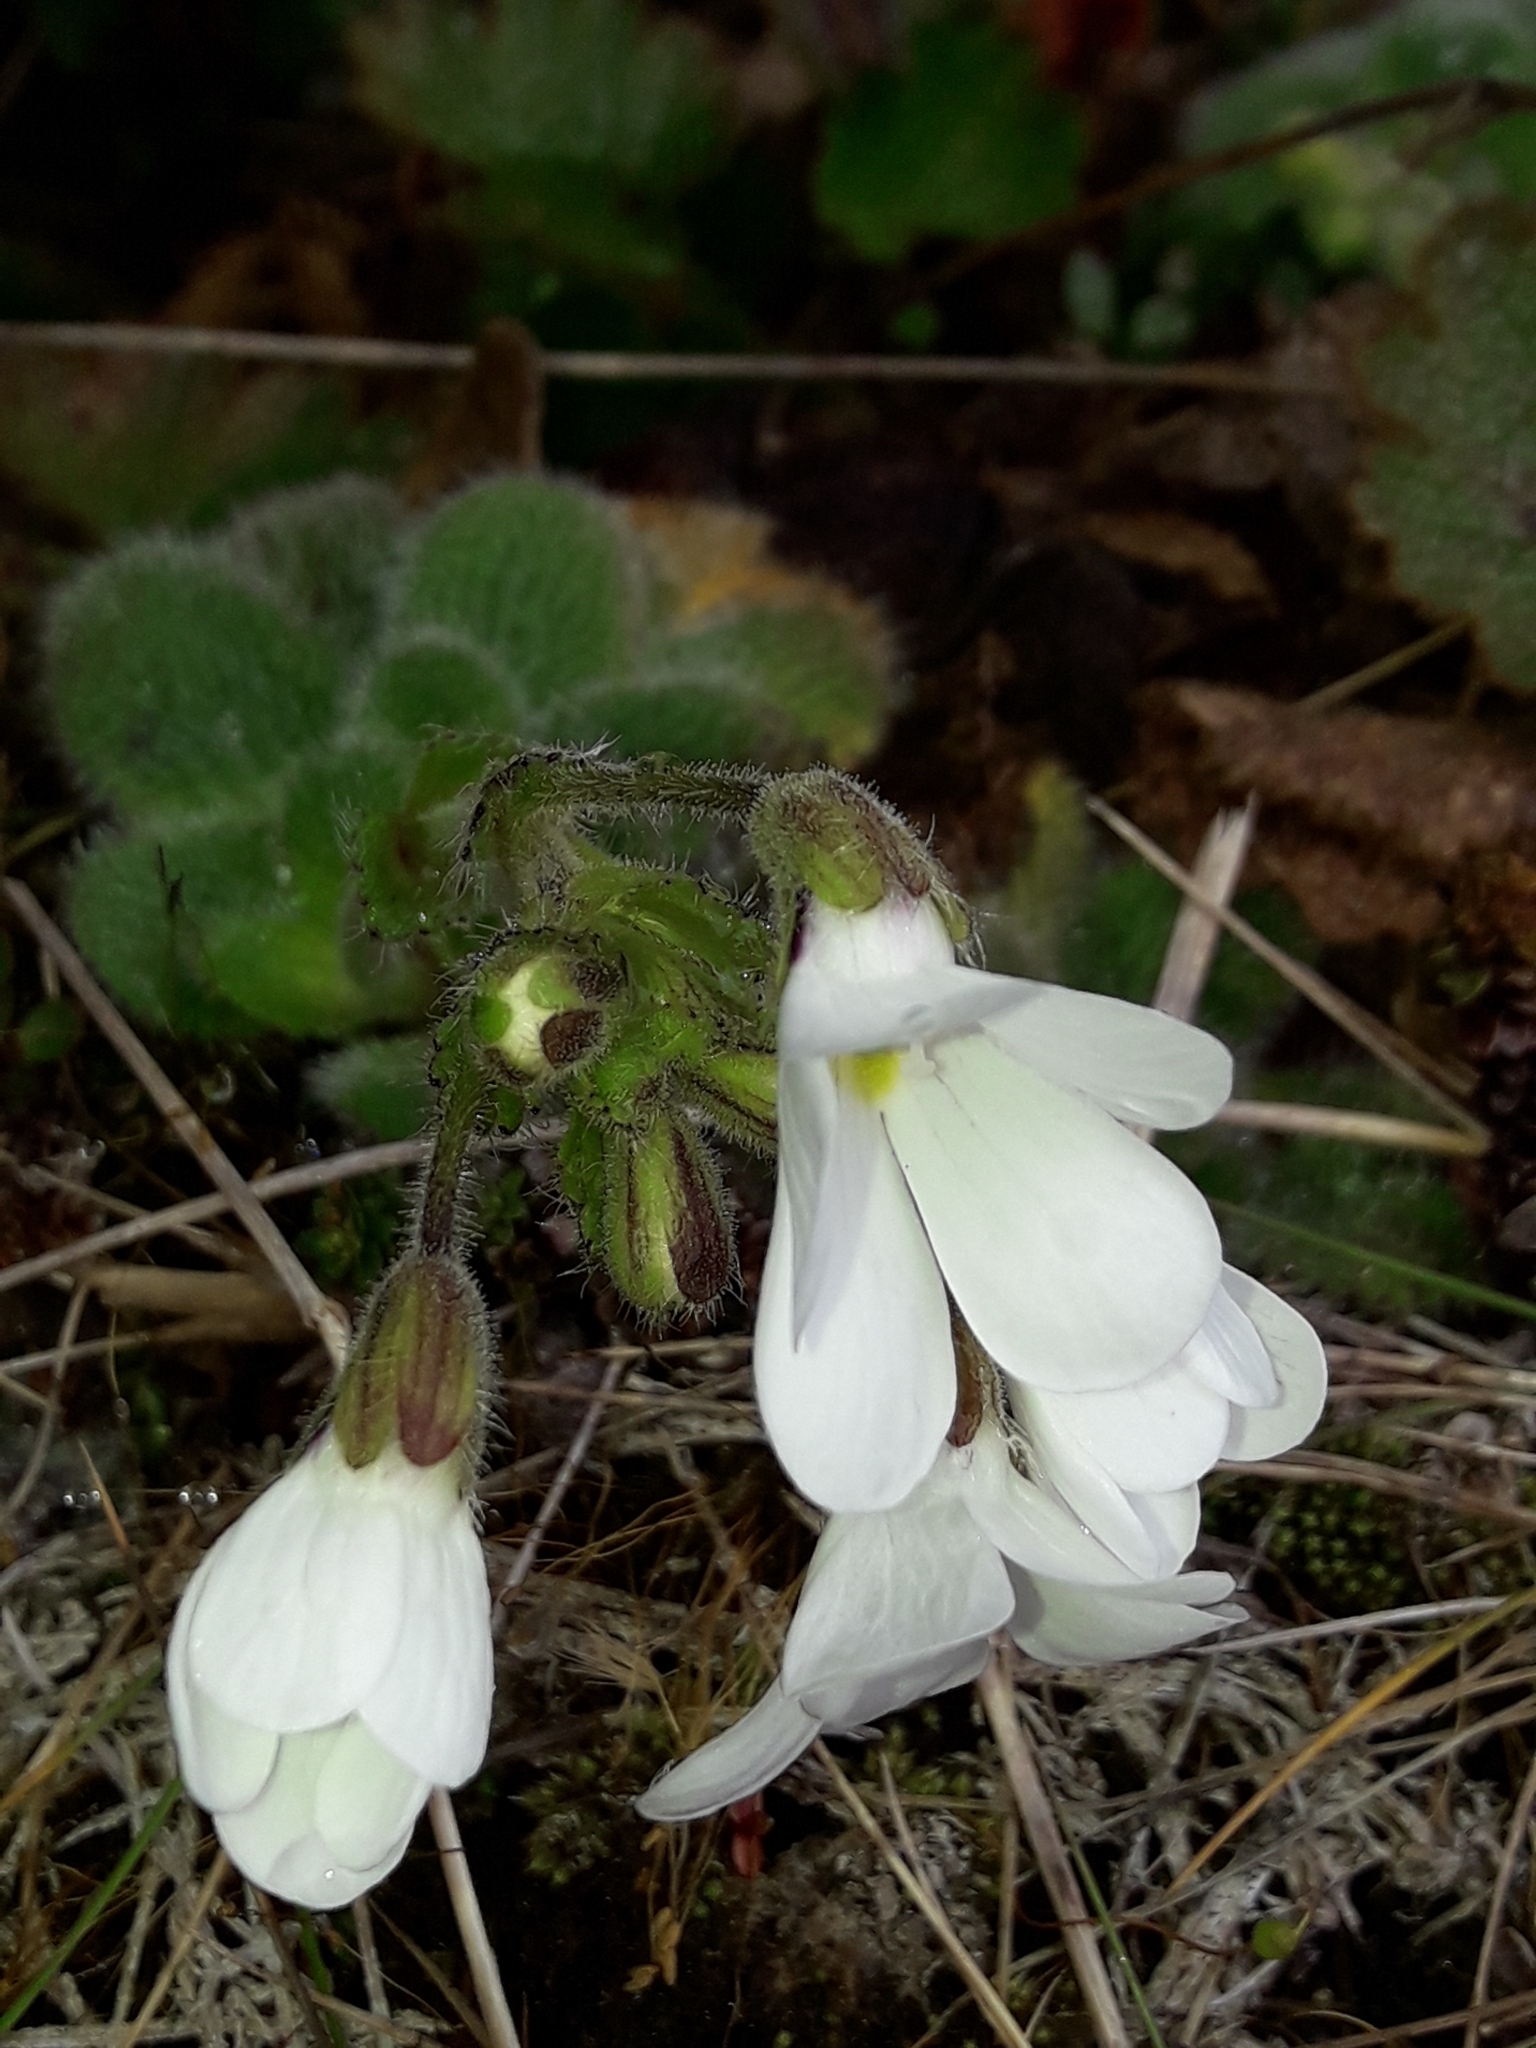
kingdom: Plantae
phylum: Tracheophyta
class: Magnoliopsida
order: Lamiales
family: Plantaginaceae
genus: Ourisia
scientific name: Ourisia sessilifolia
